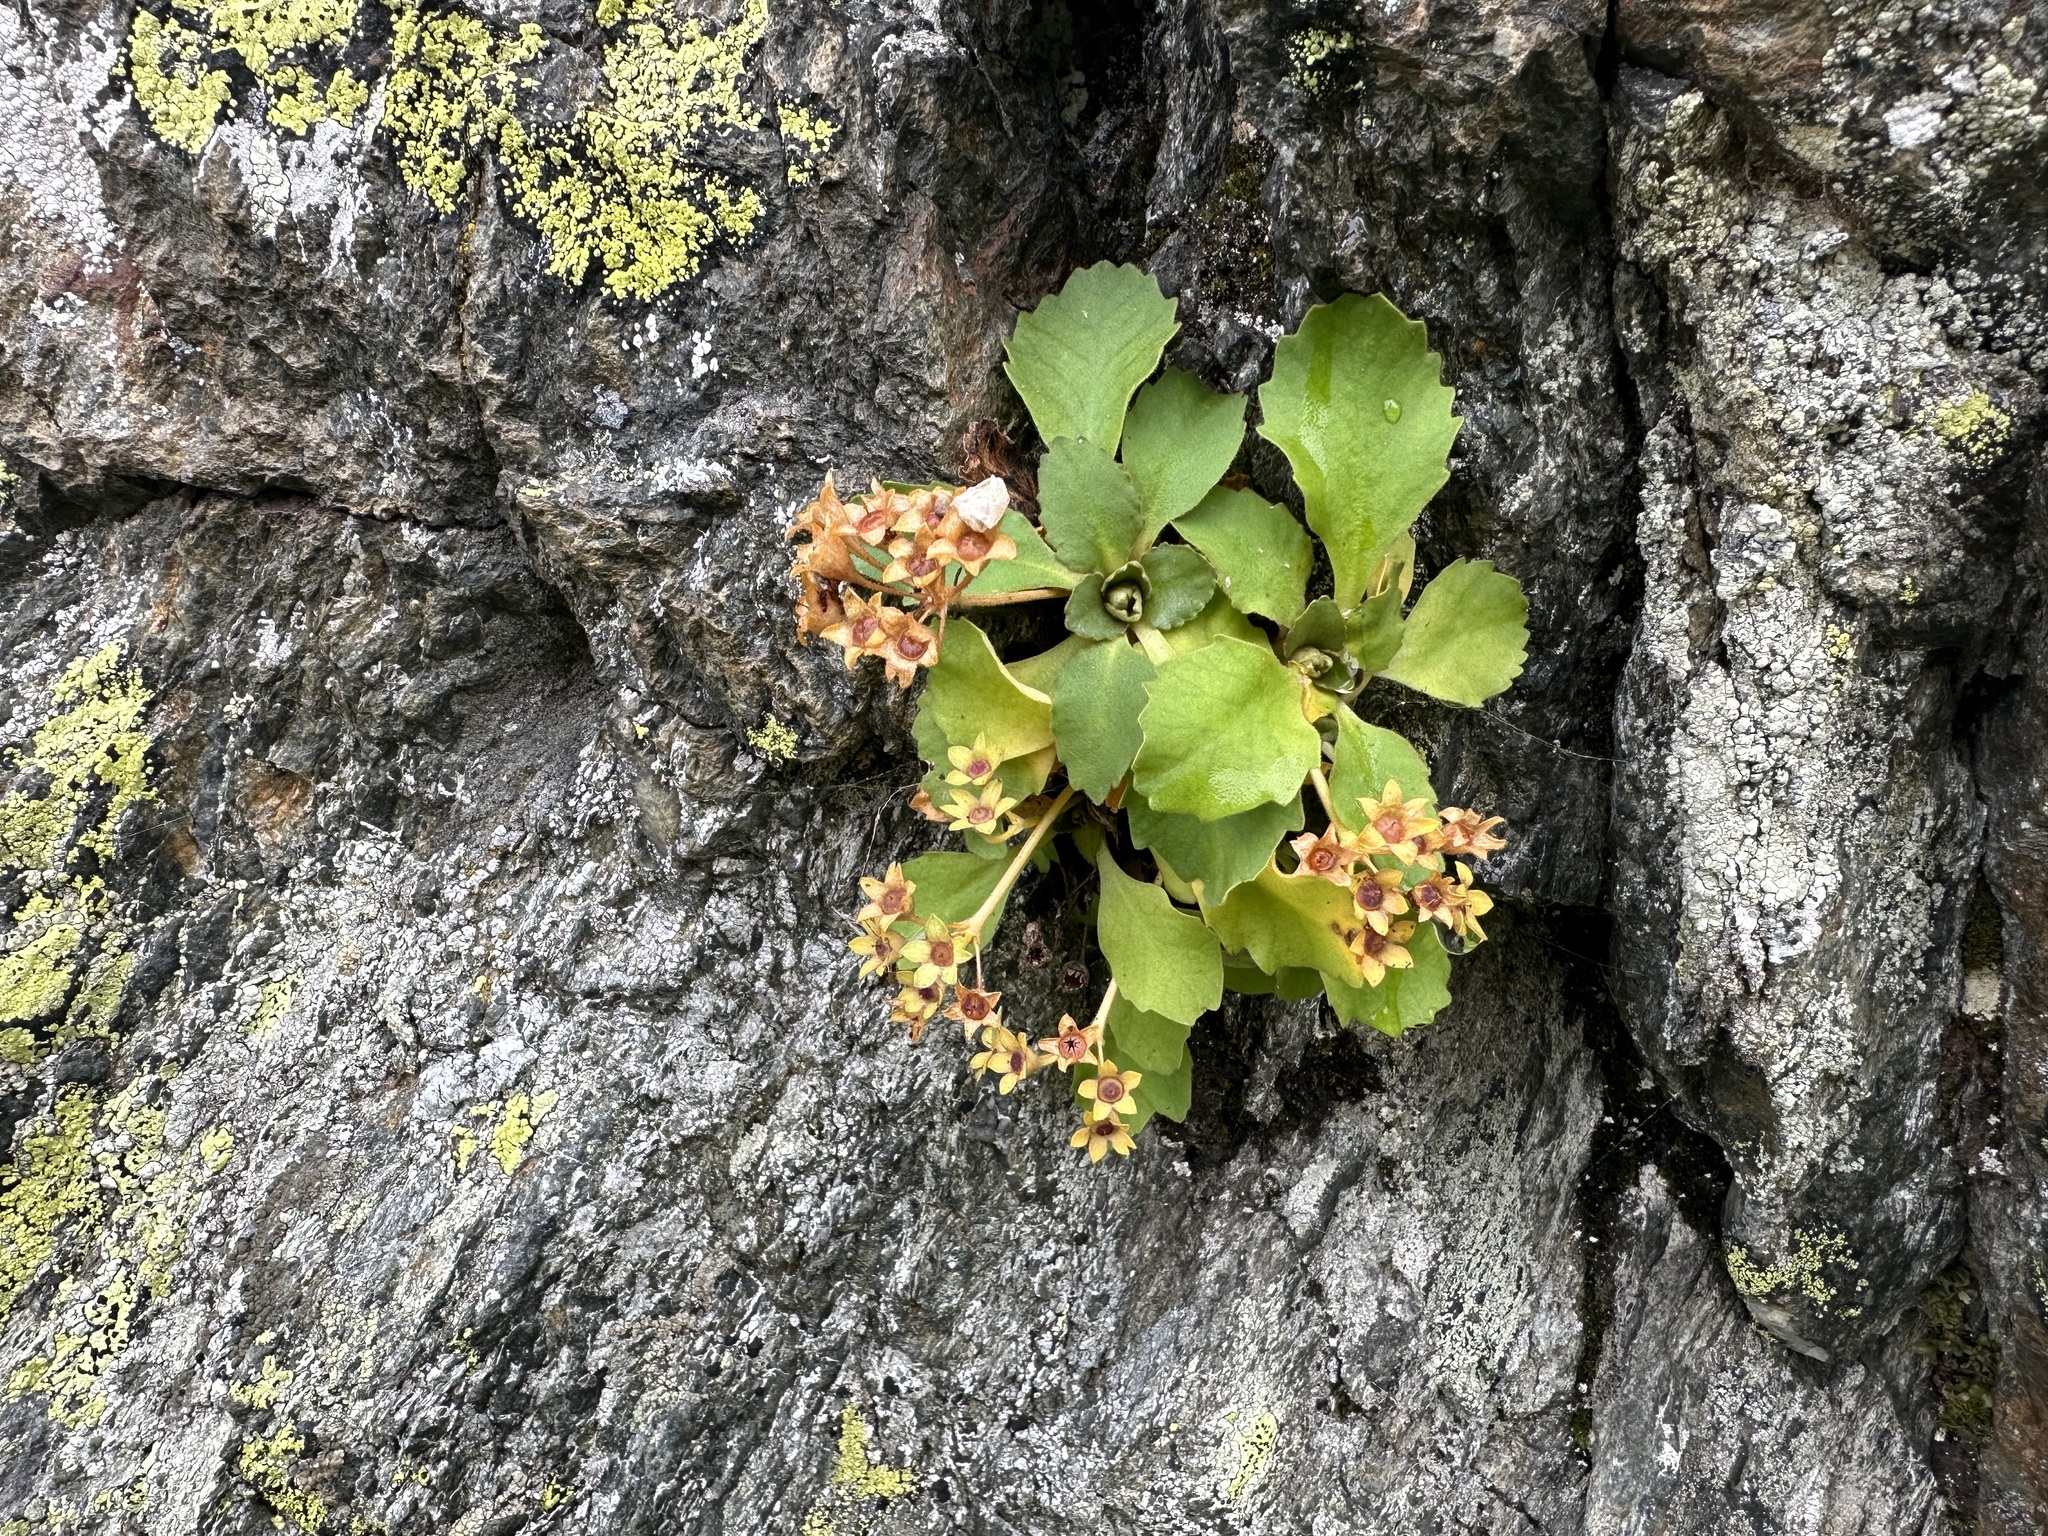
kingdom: Plantae
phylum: Tracheophyta
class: Magnoliopsida
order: Ericales
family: Primulaceae
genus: Primula
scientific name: Primula hirsuta
